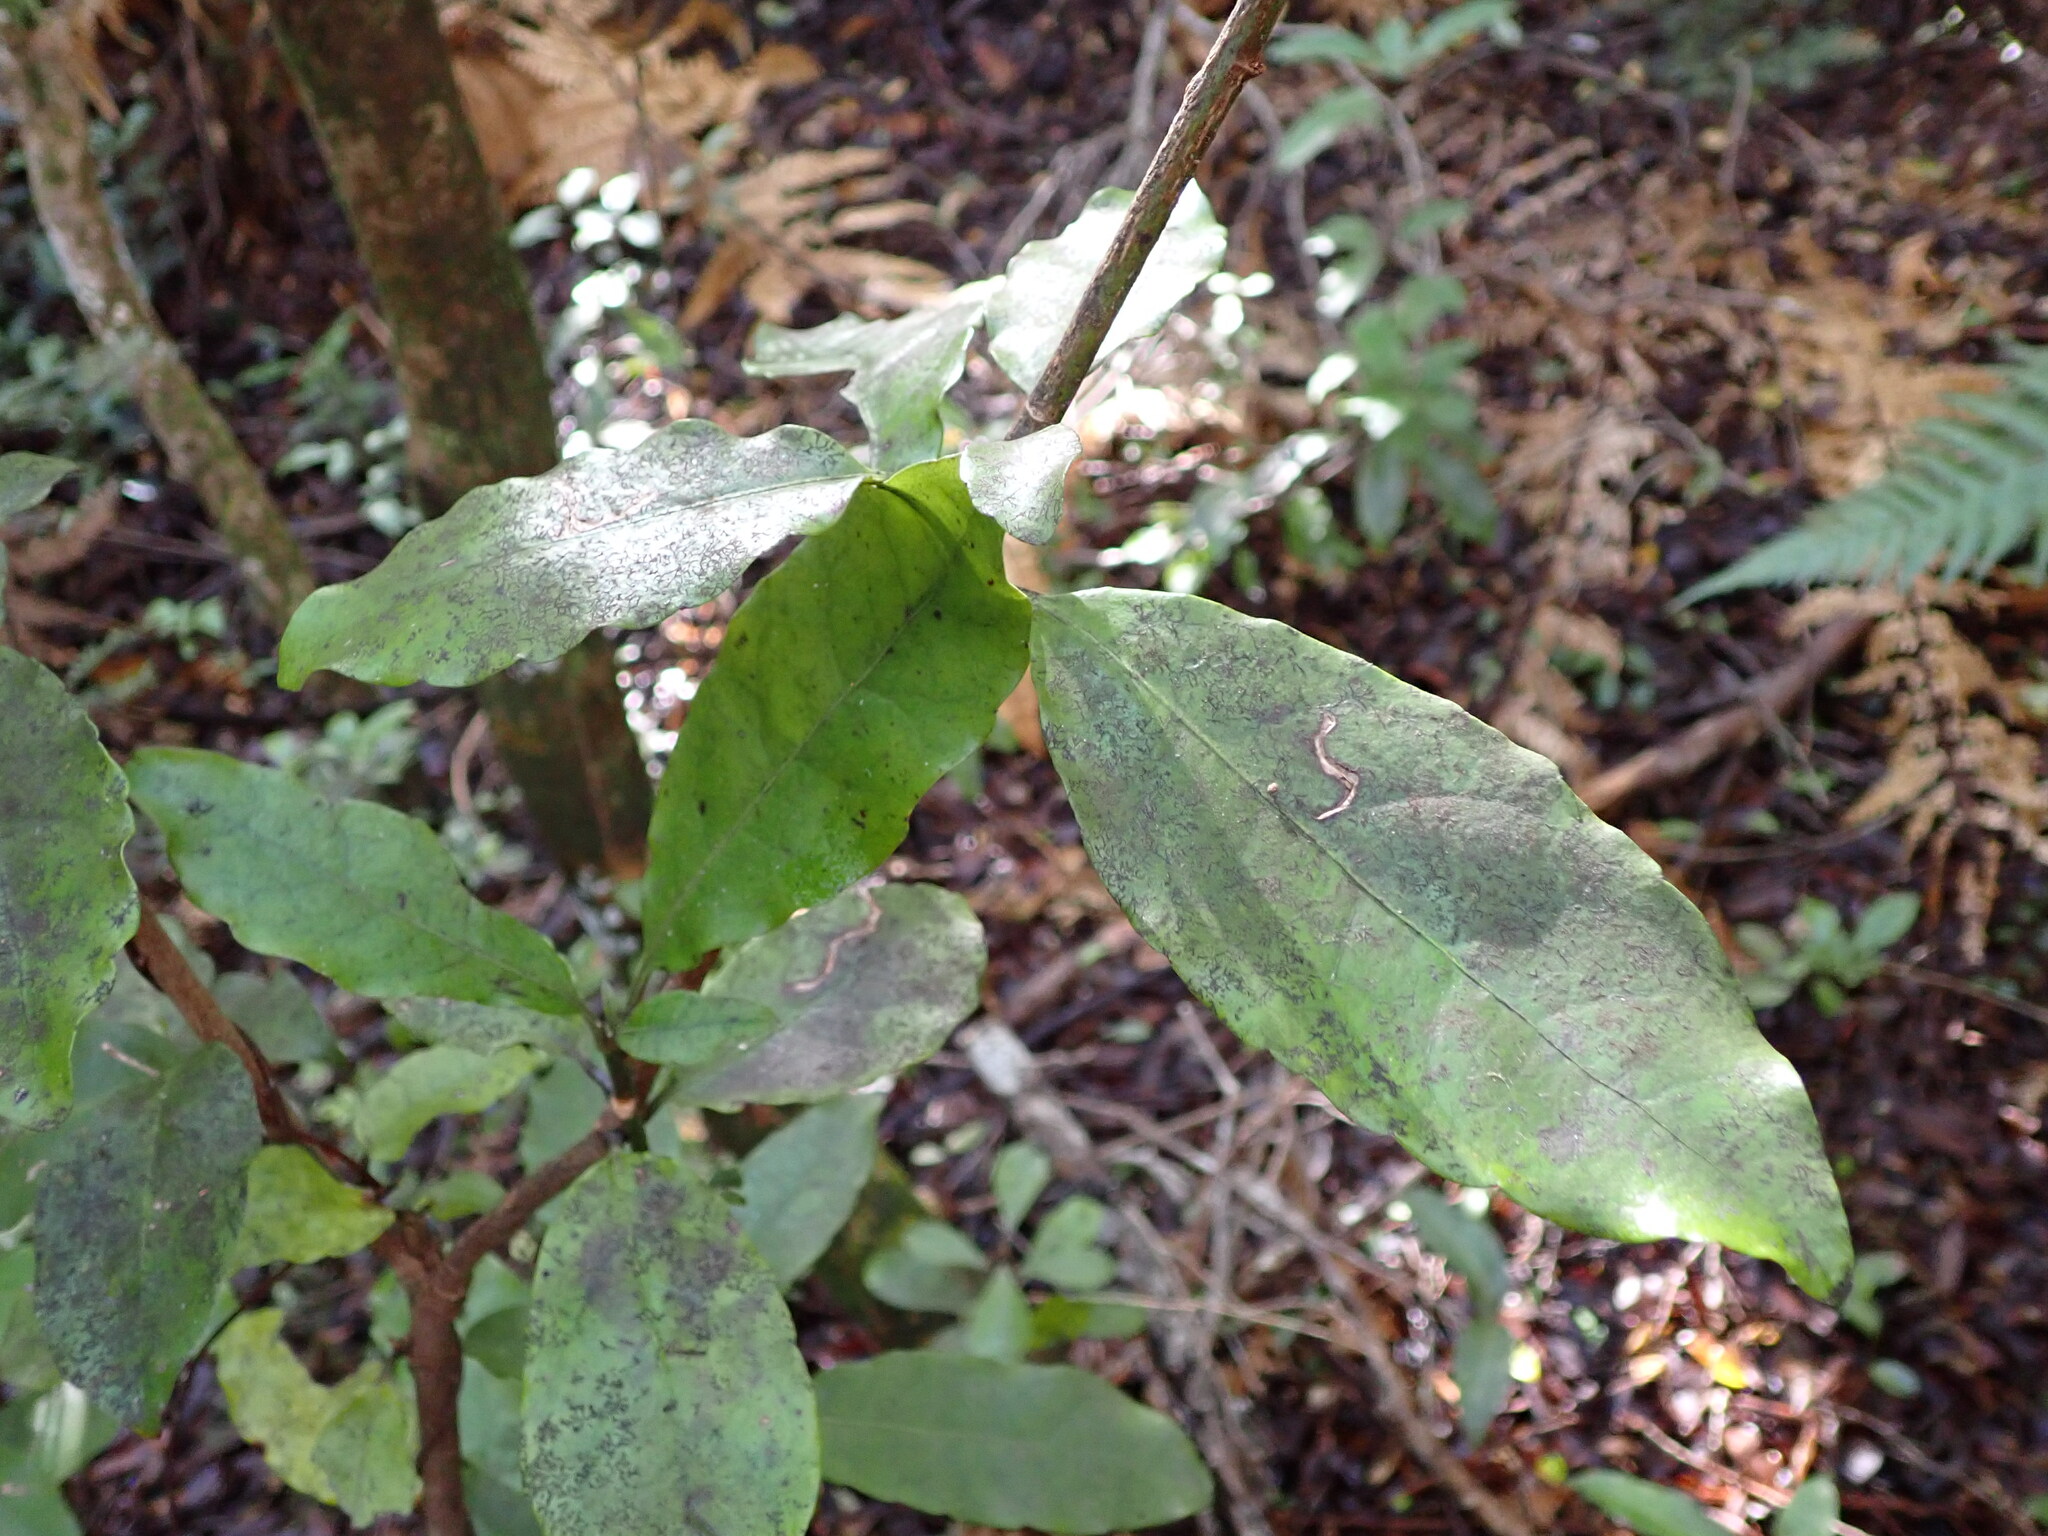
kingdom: Plantae
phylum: Tracheophyta
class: Magnoliopsida
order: Asterales
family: Alseuosmiaceae
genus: Alseuosmia
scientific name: Alseuosmia macrophylla
